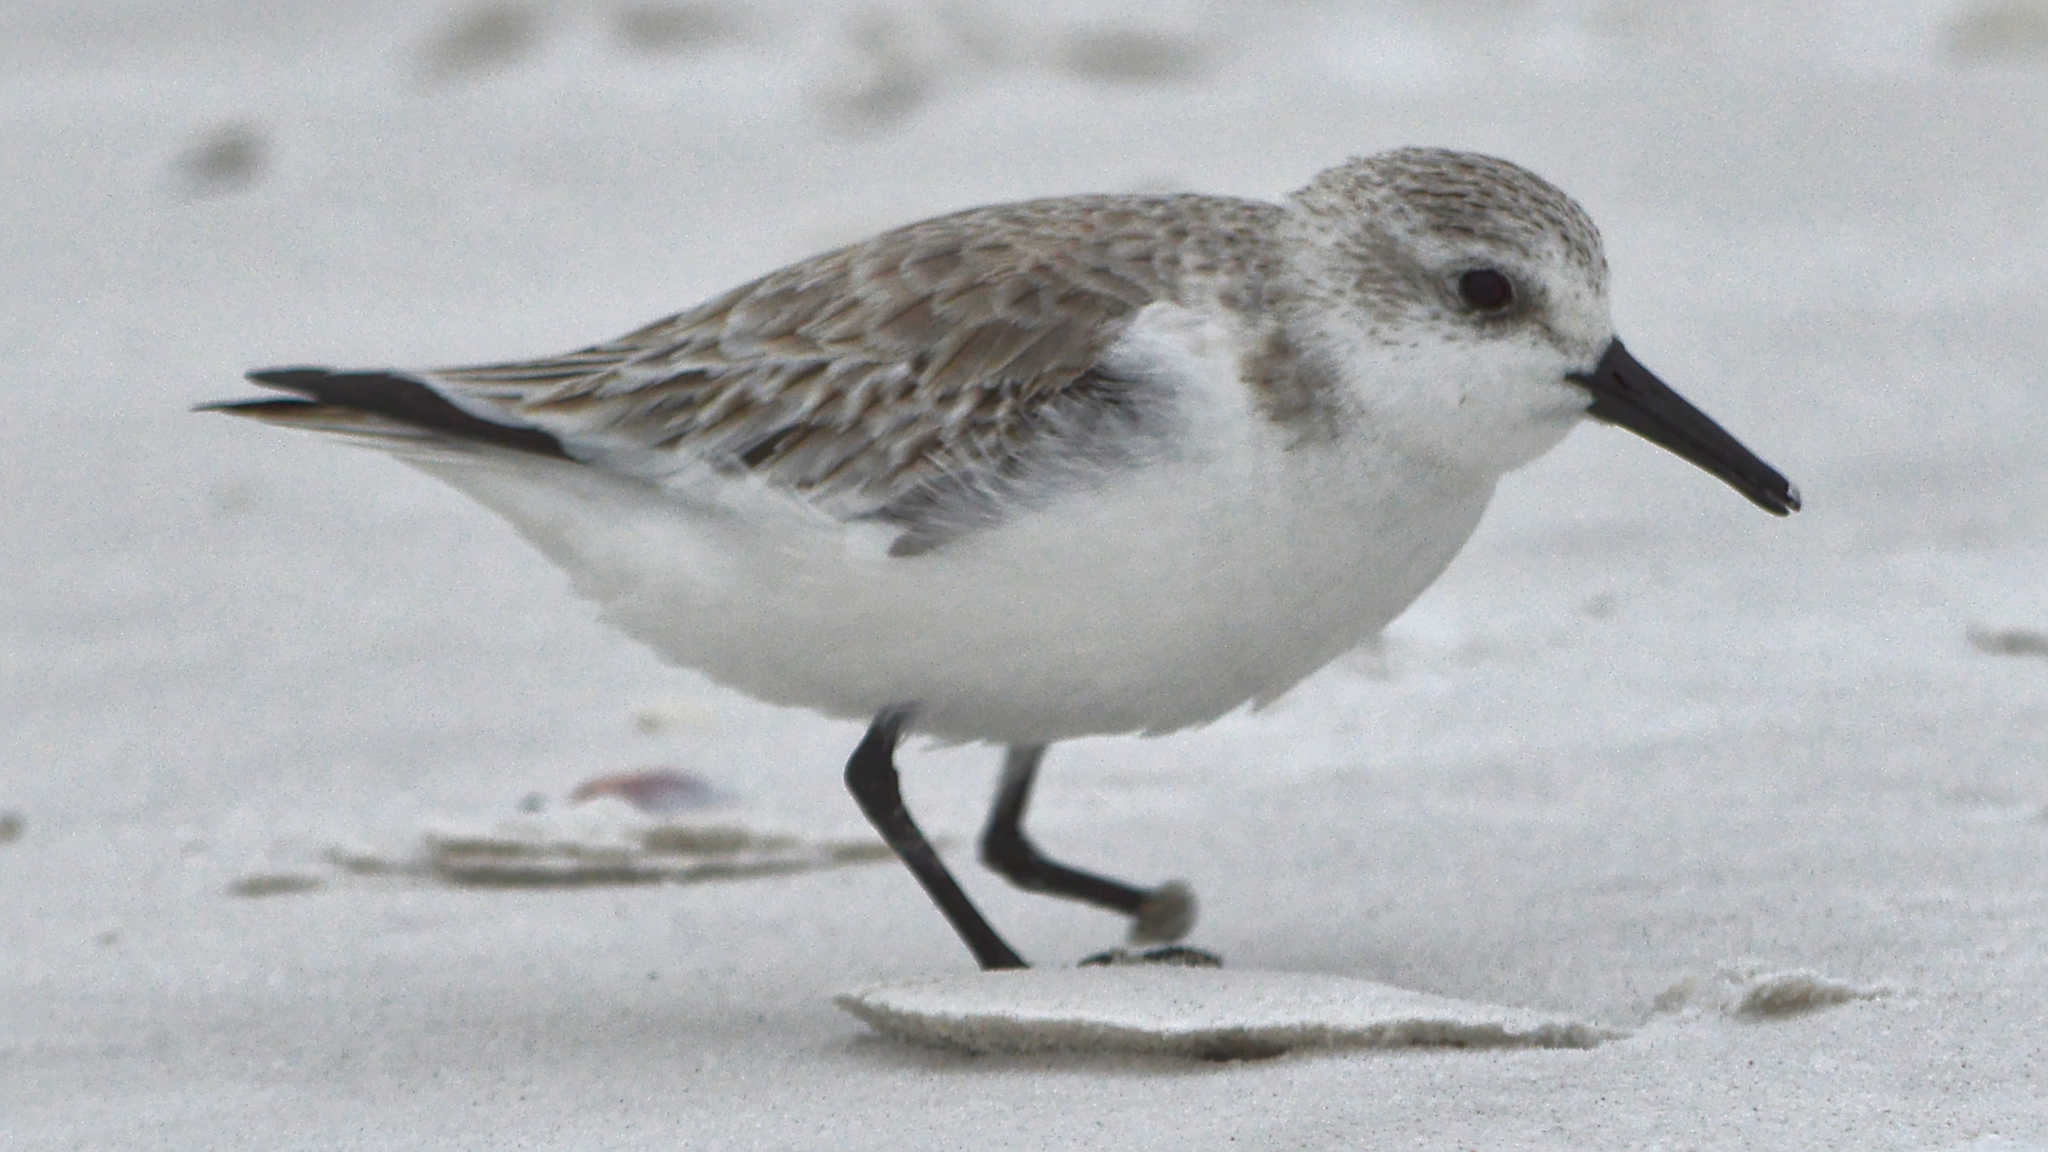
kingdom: Animalia
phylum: Chordata
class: Aves
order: Charadriiformes
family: Scolopacidae
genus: Calidris
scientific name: Calidris alba
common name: Sanderling
